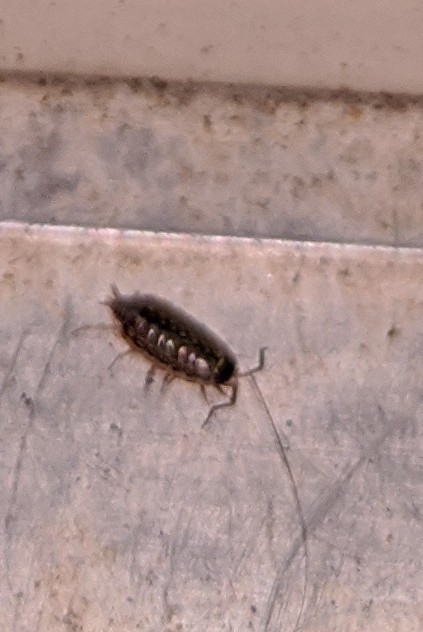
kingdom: Animalia
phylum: Arthropoda
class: Malacostraca
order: Isopoda
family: Philosciidae
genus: Philoscia
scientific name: Philoscia muscorum
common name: Common striped woodlouse
